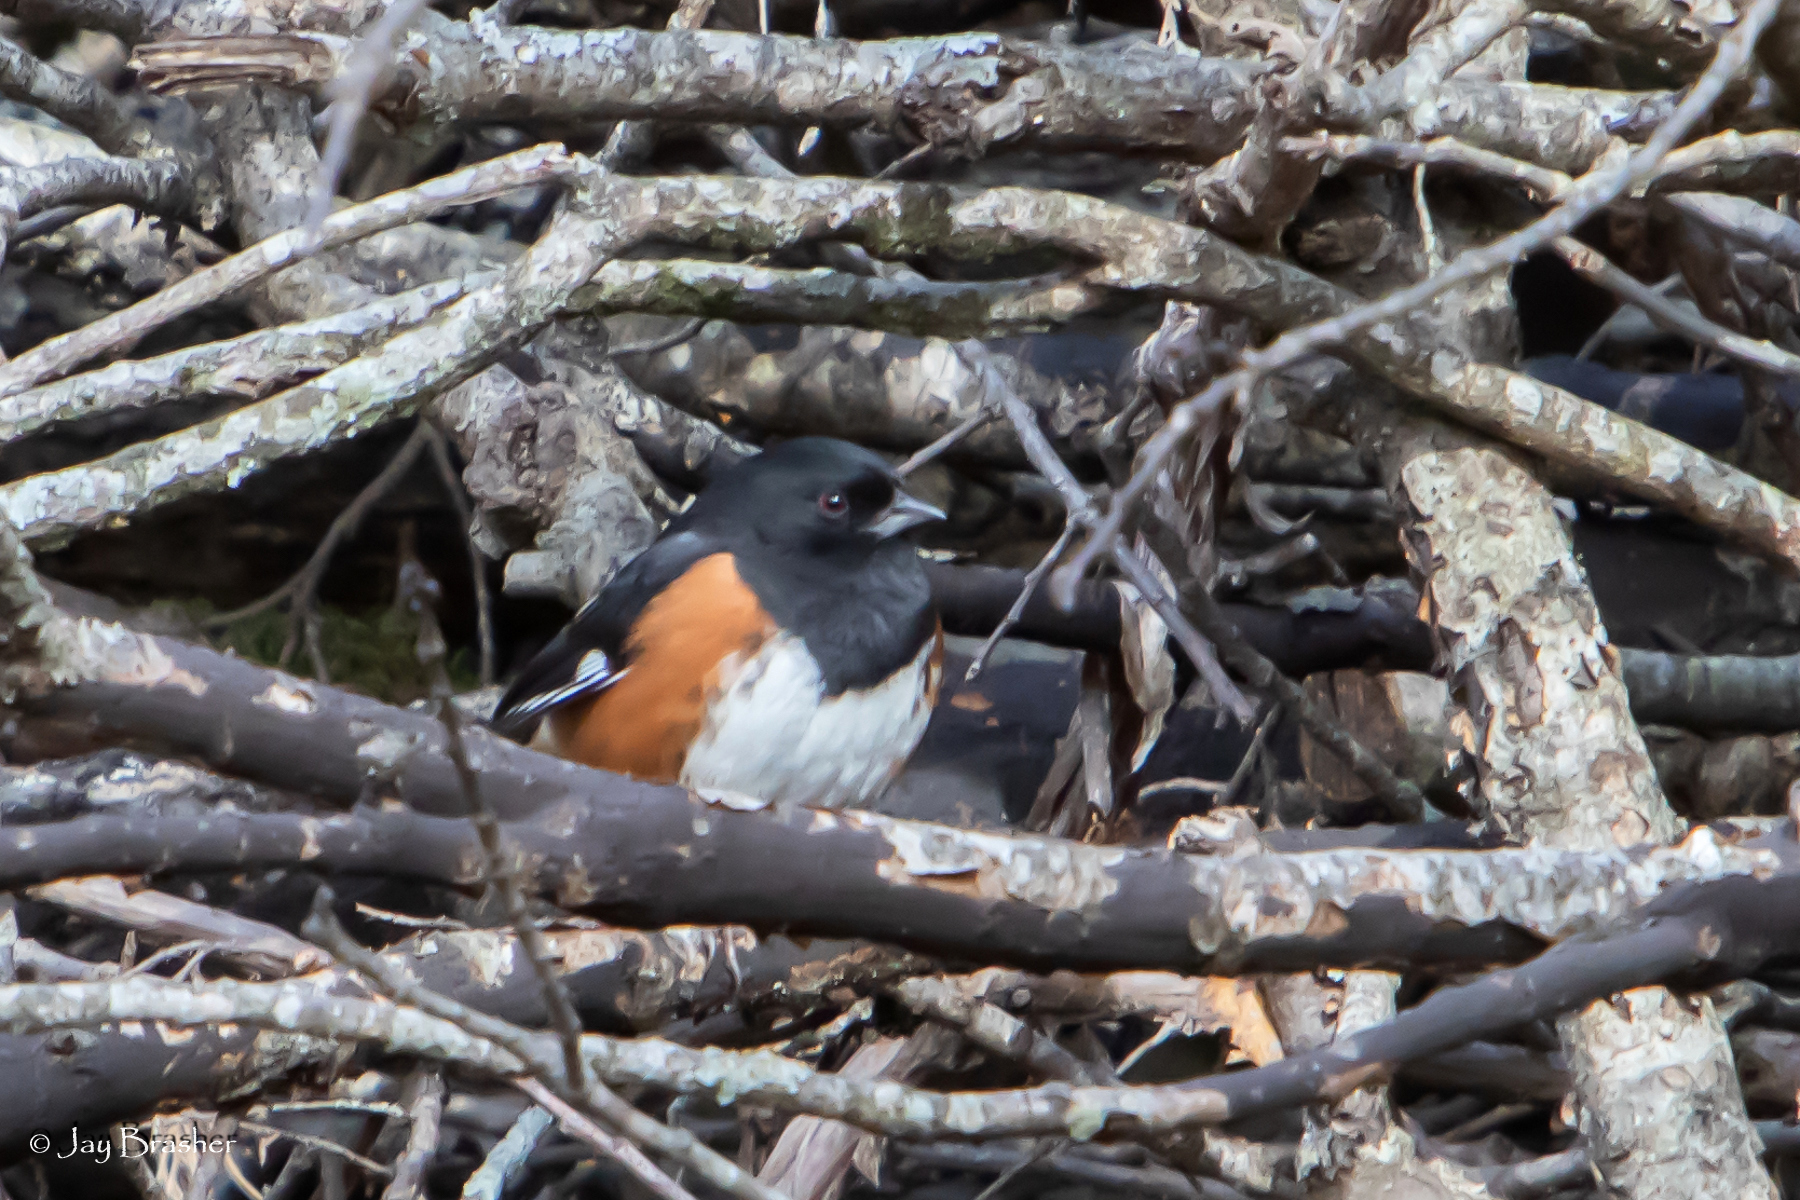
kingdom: Animalia
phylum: Chordata
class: Aves
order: Passeriformes
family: Passerellidae
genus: Pipilo
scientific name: Pipilo erythrophthalmus
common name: Eastern towhee
